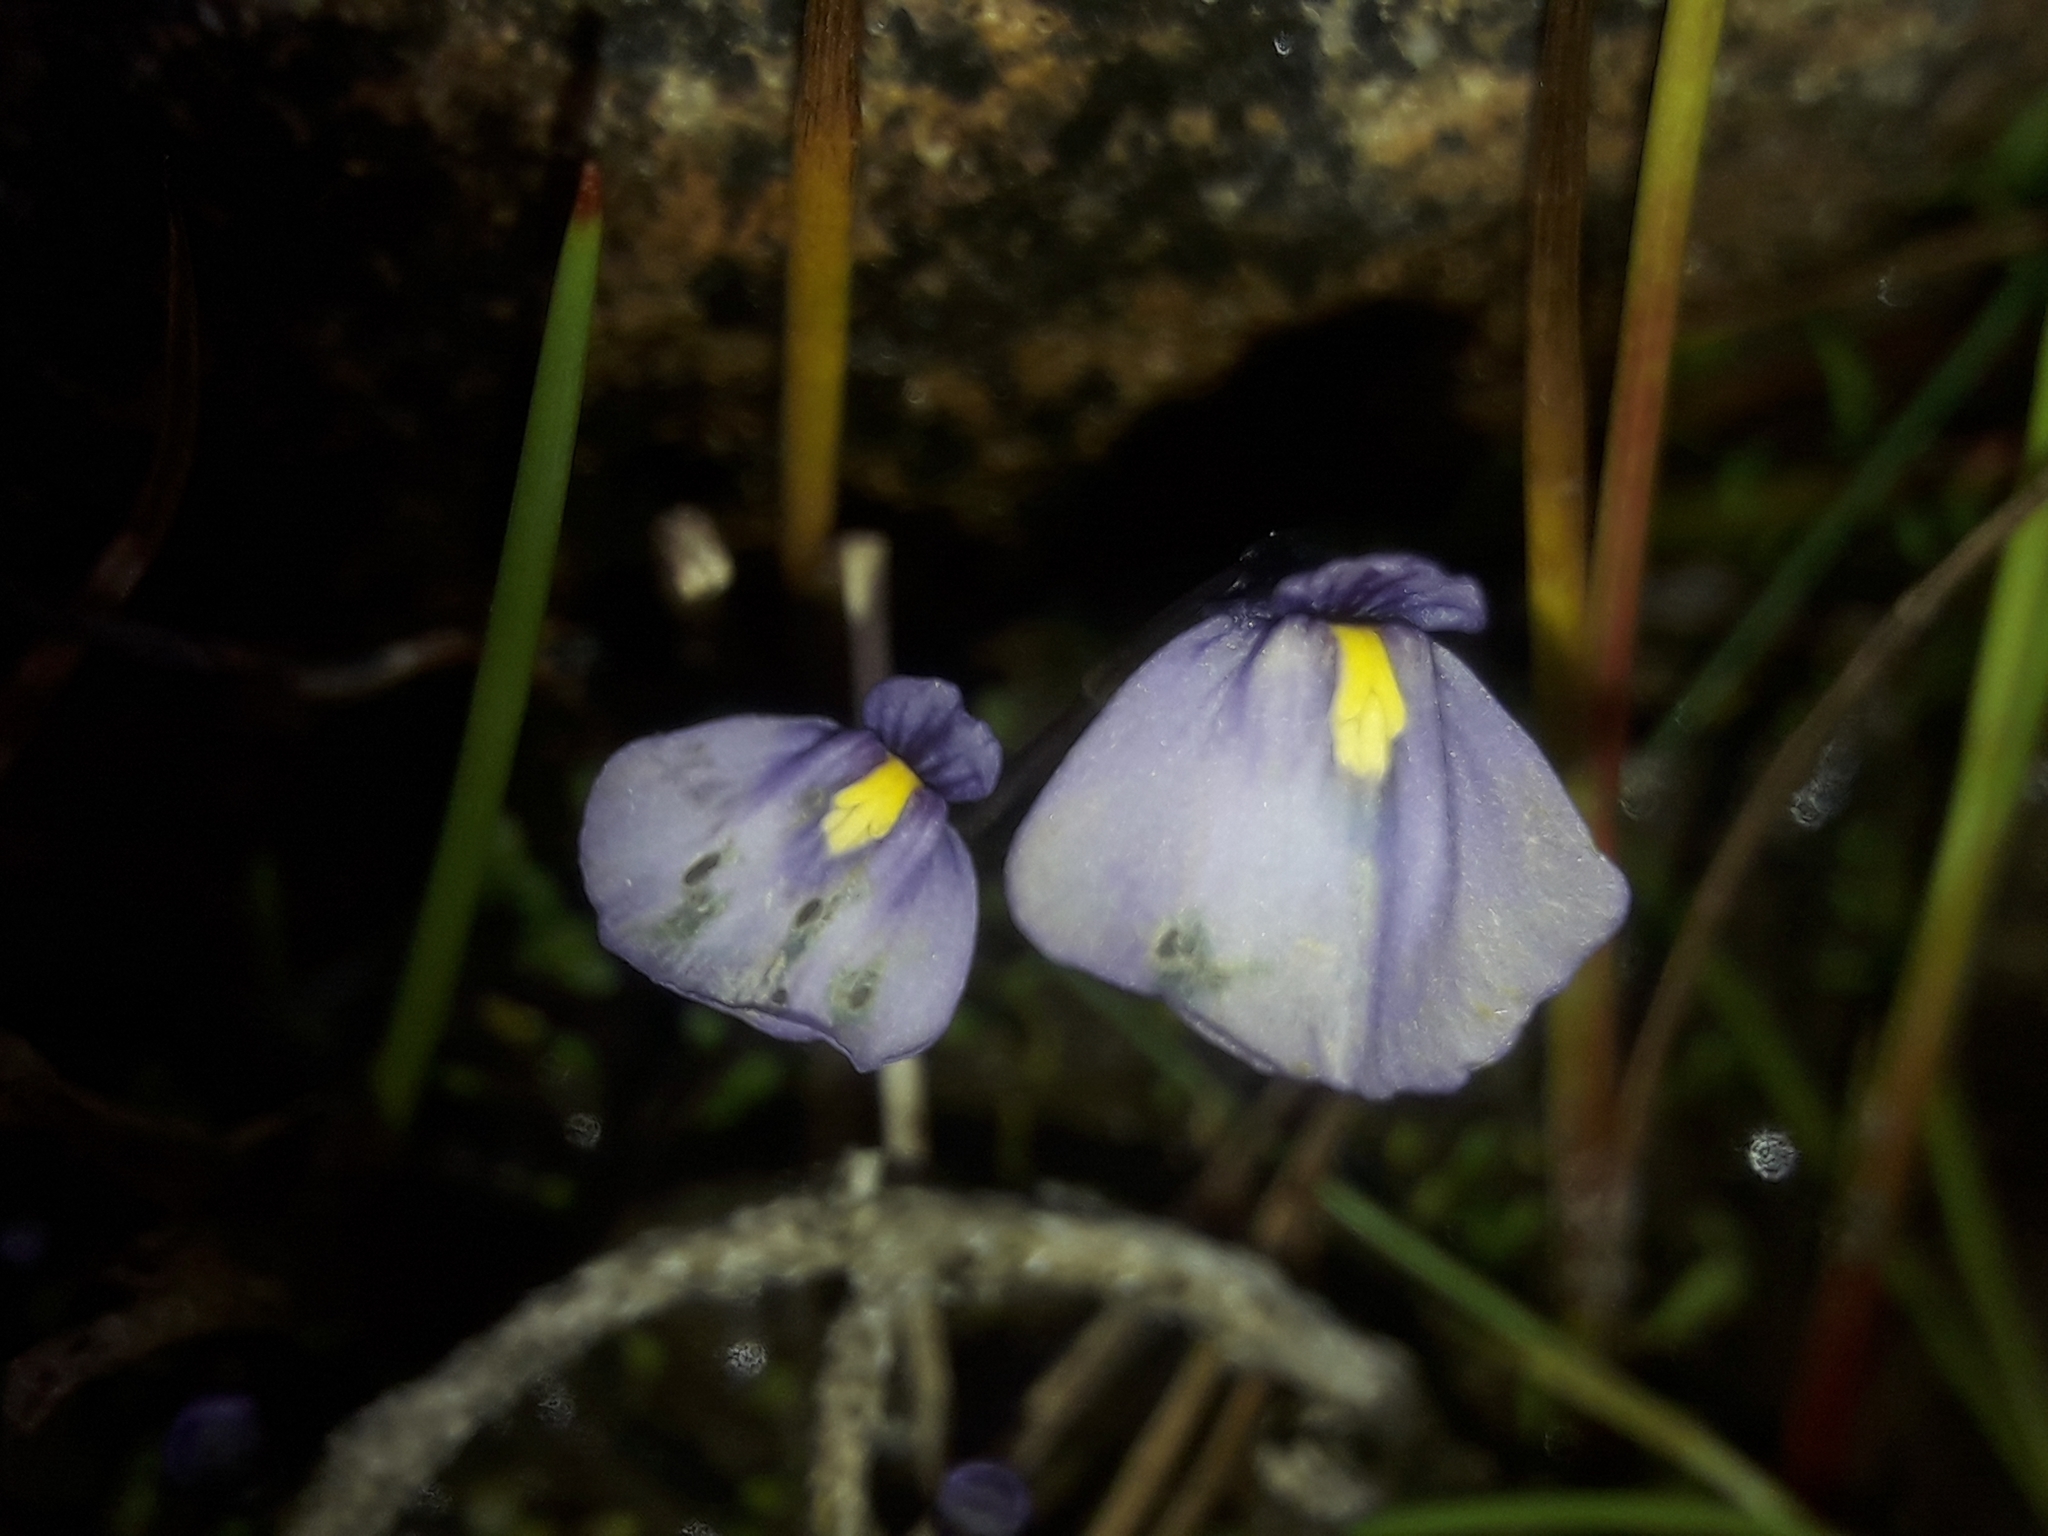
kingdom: Plantae
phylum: Tracheophyta
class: Magnoliopsida
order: Lamiales
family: Lentibulariaceae
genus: Utricularia
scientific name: Utricularia dichotoma
